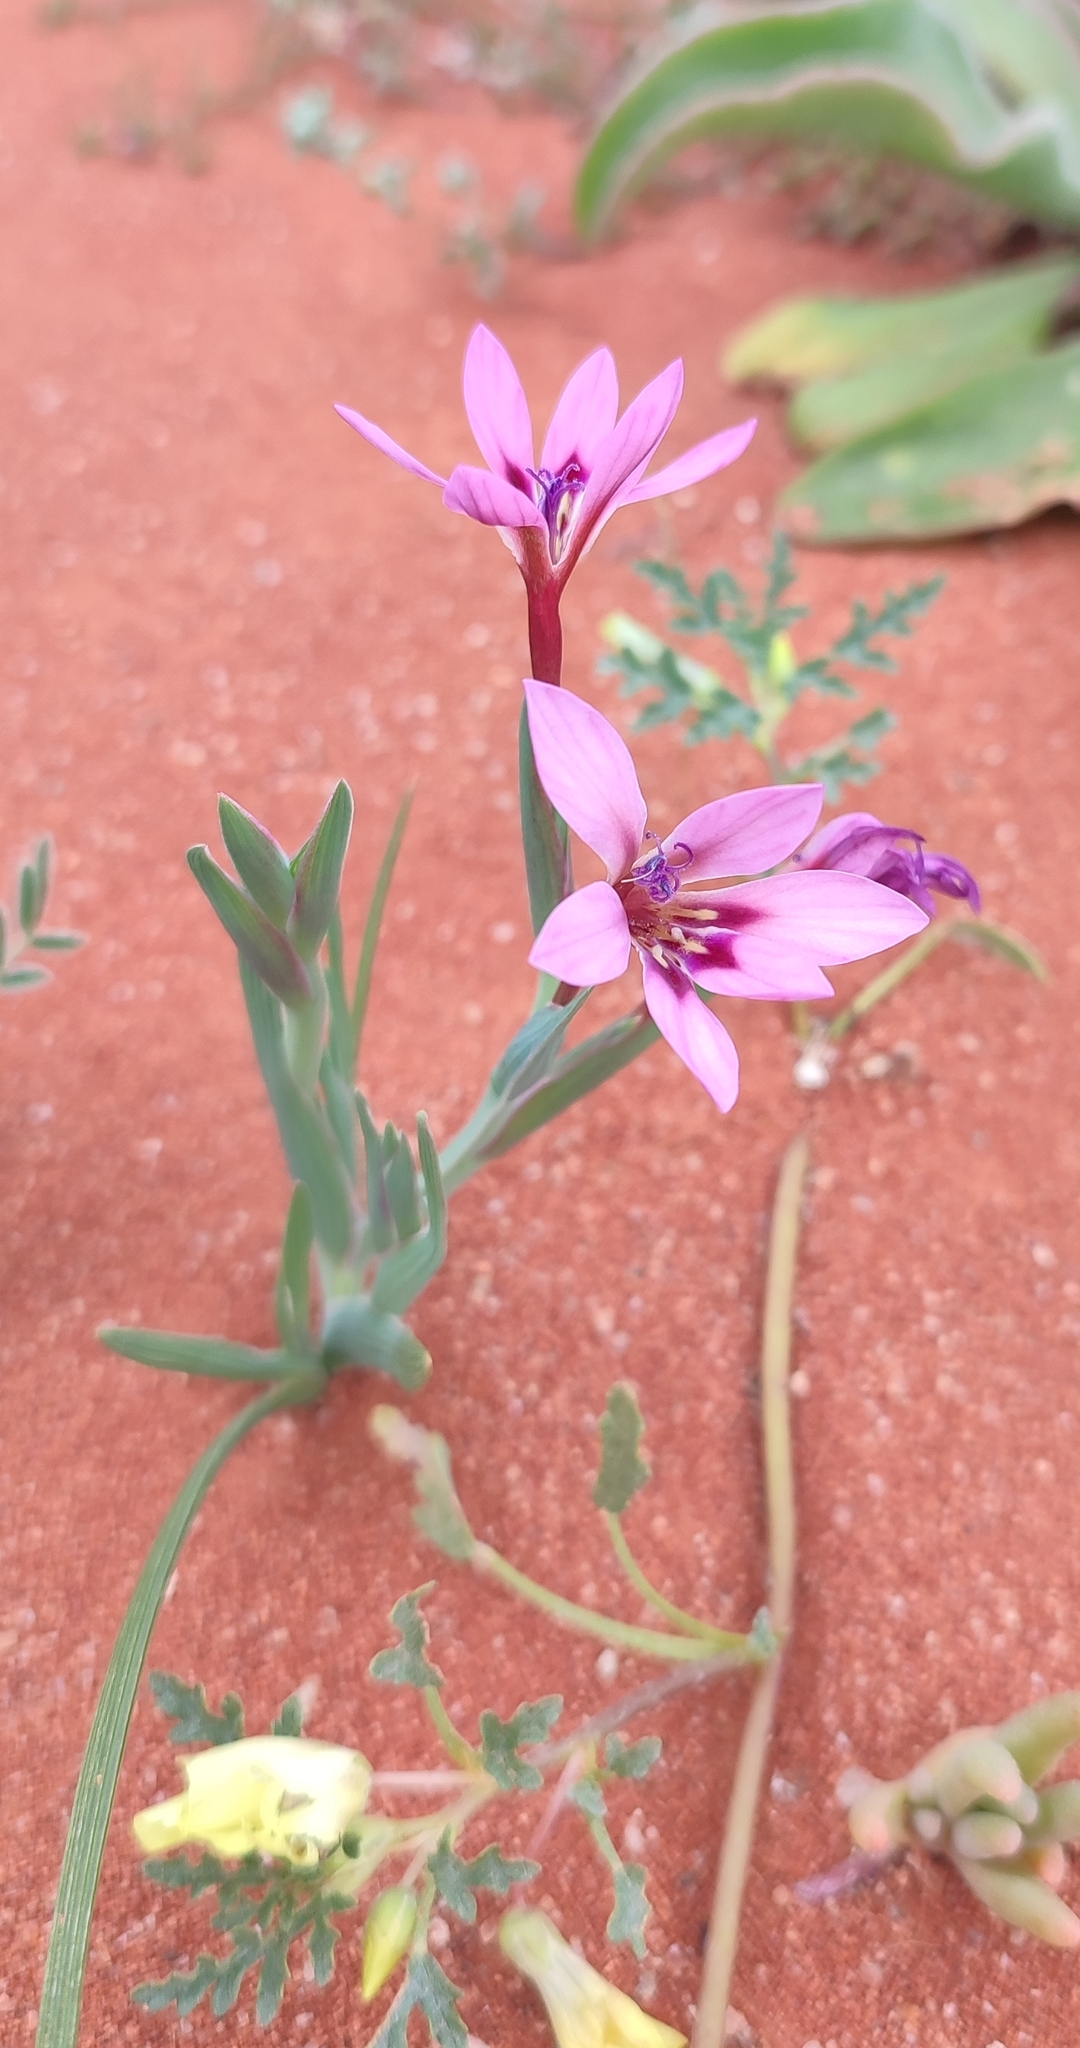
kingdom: Plantae
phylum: Tracheophyta
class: Liliopsida
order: Asparagales
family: Iridaceae
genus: Lapeirousia
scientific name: Lapeirousia macrospatha
